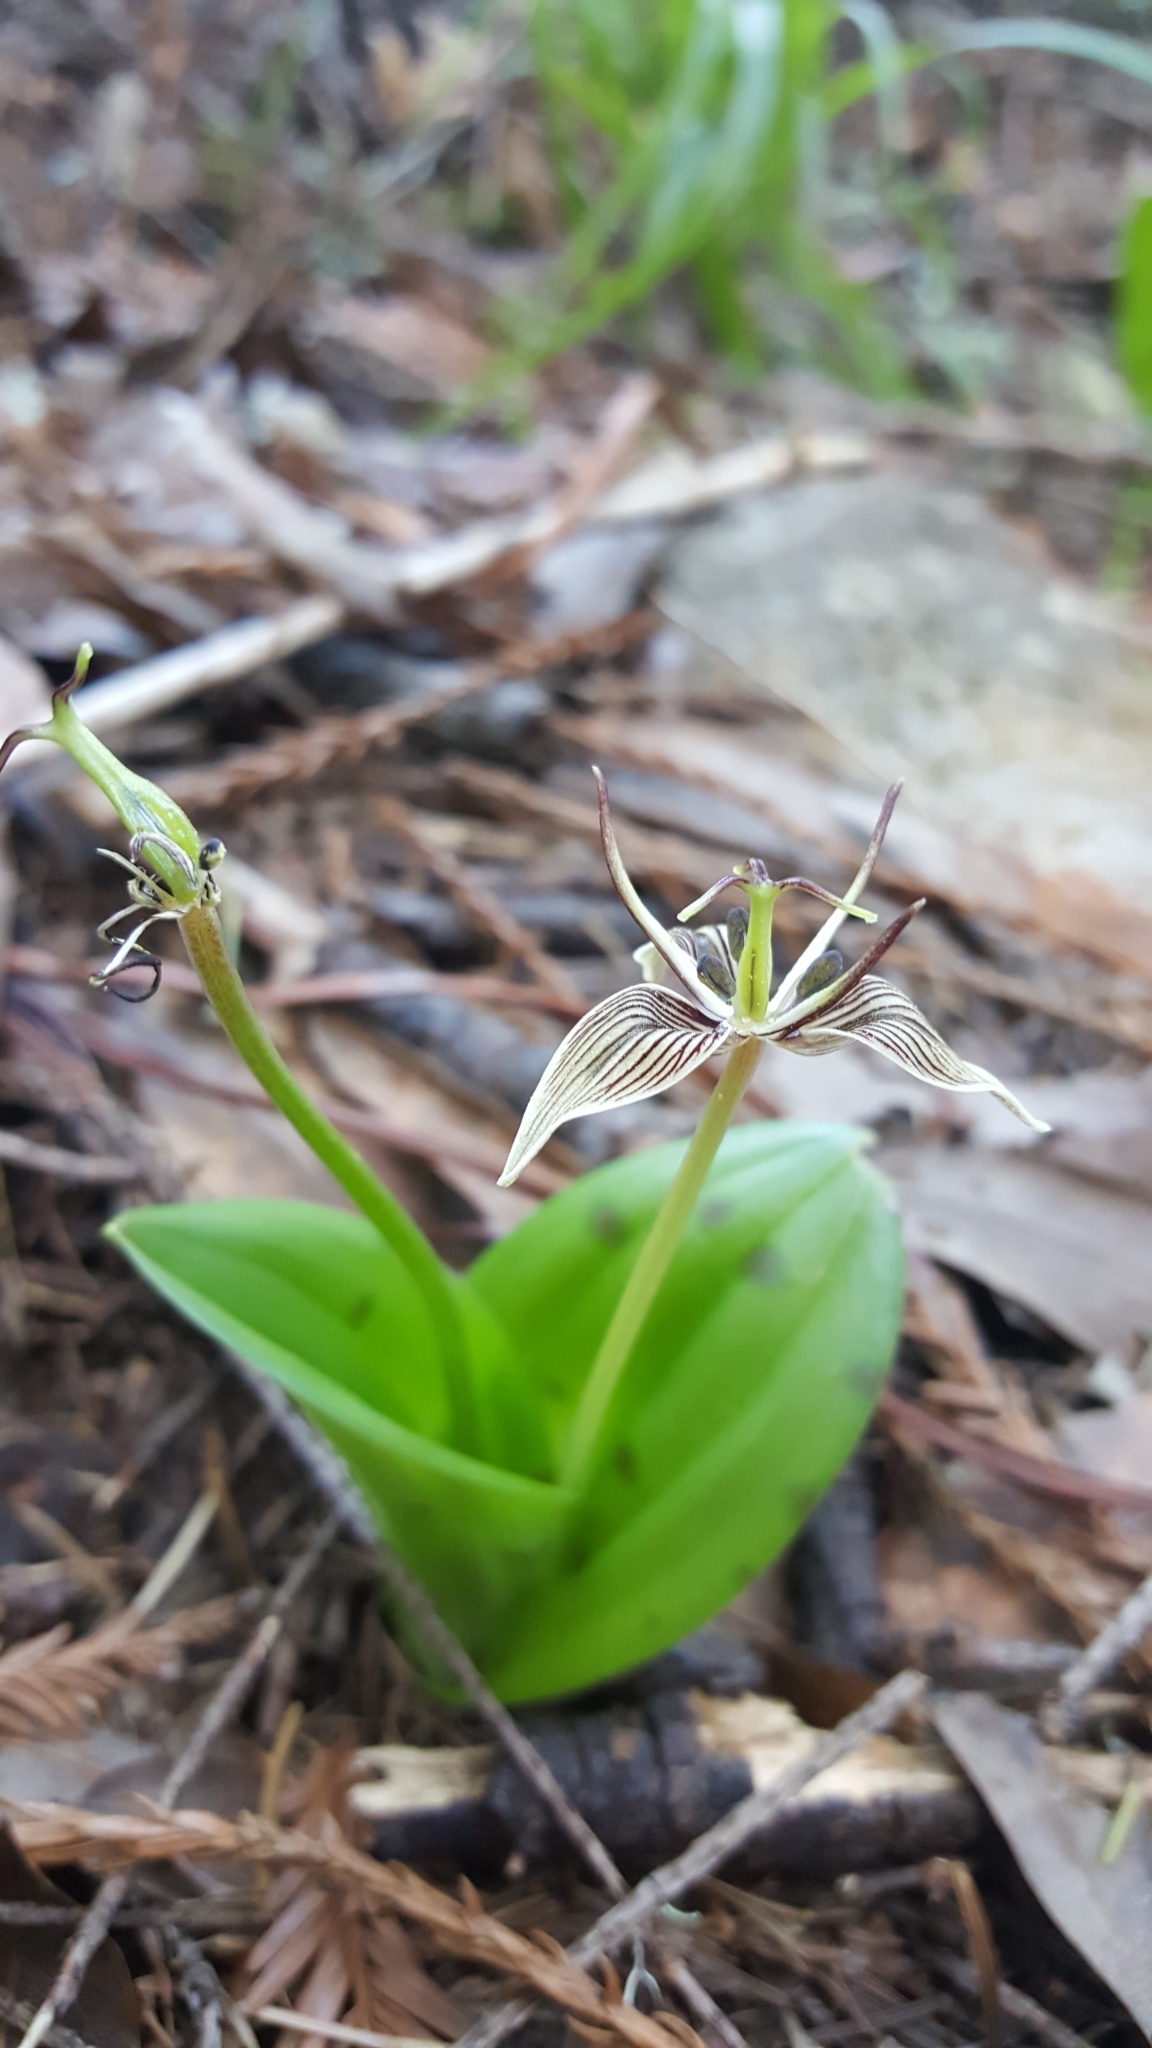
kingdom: Plantae
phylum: Tracheophyta
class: Liliopsida
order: Liliales
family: Liliaceae
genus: Scoliopus
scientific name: Scoliopus bigelovii
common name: Foetid adder's-tongue
